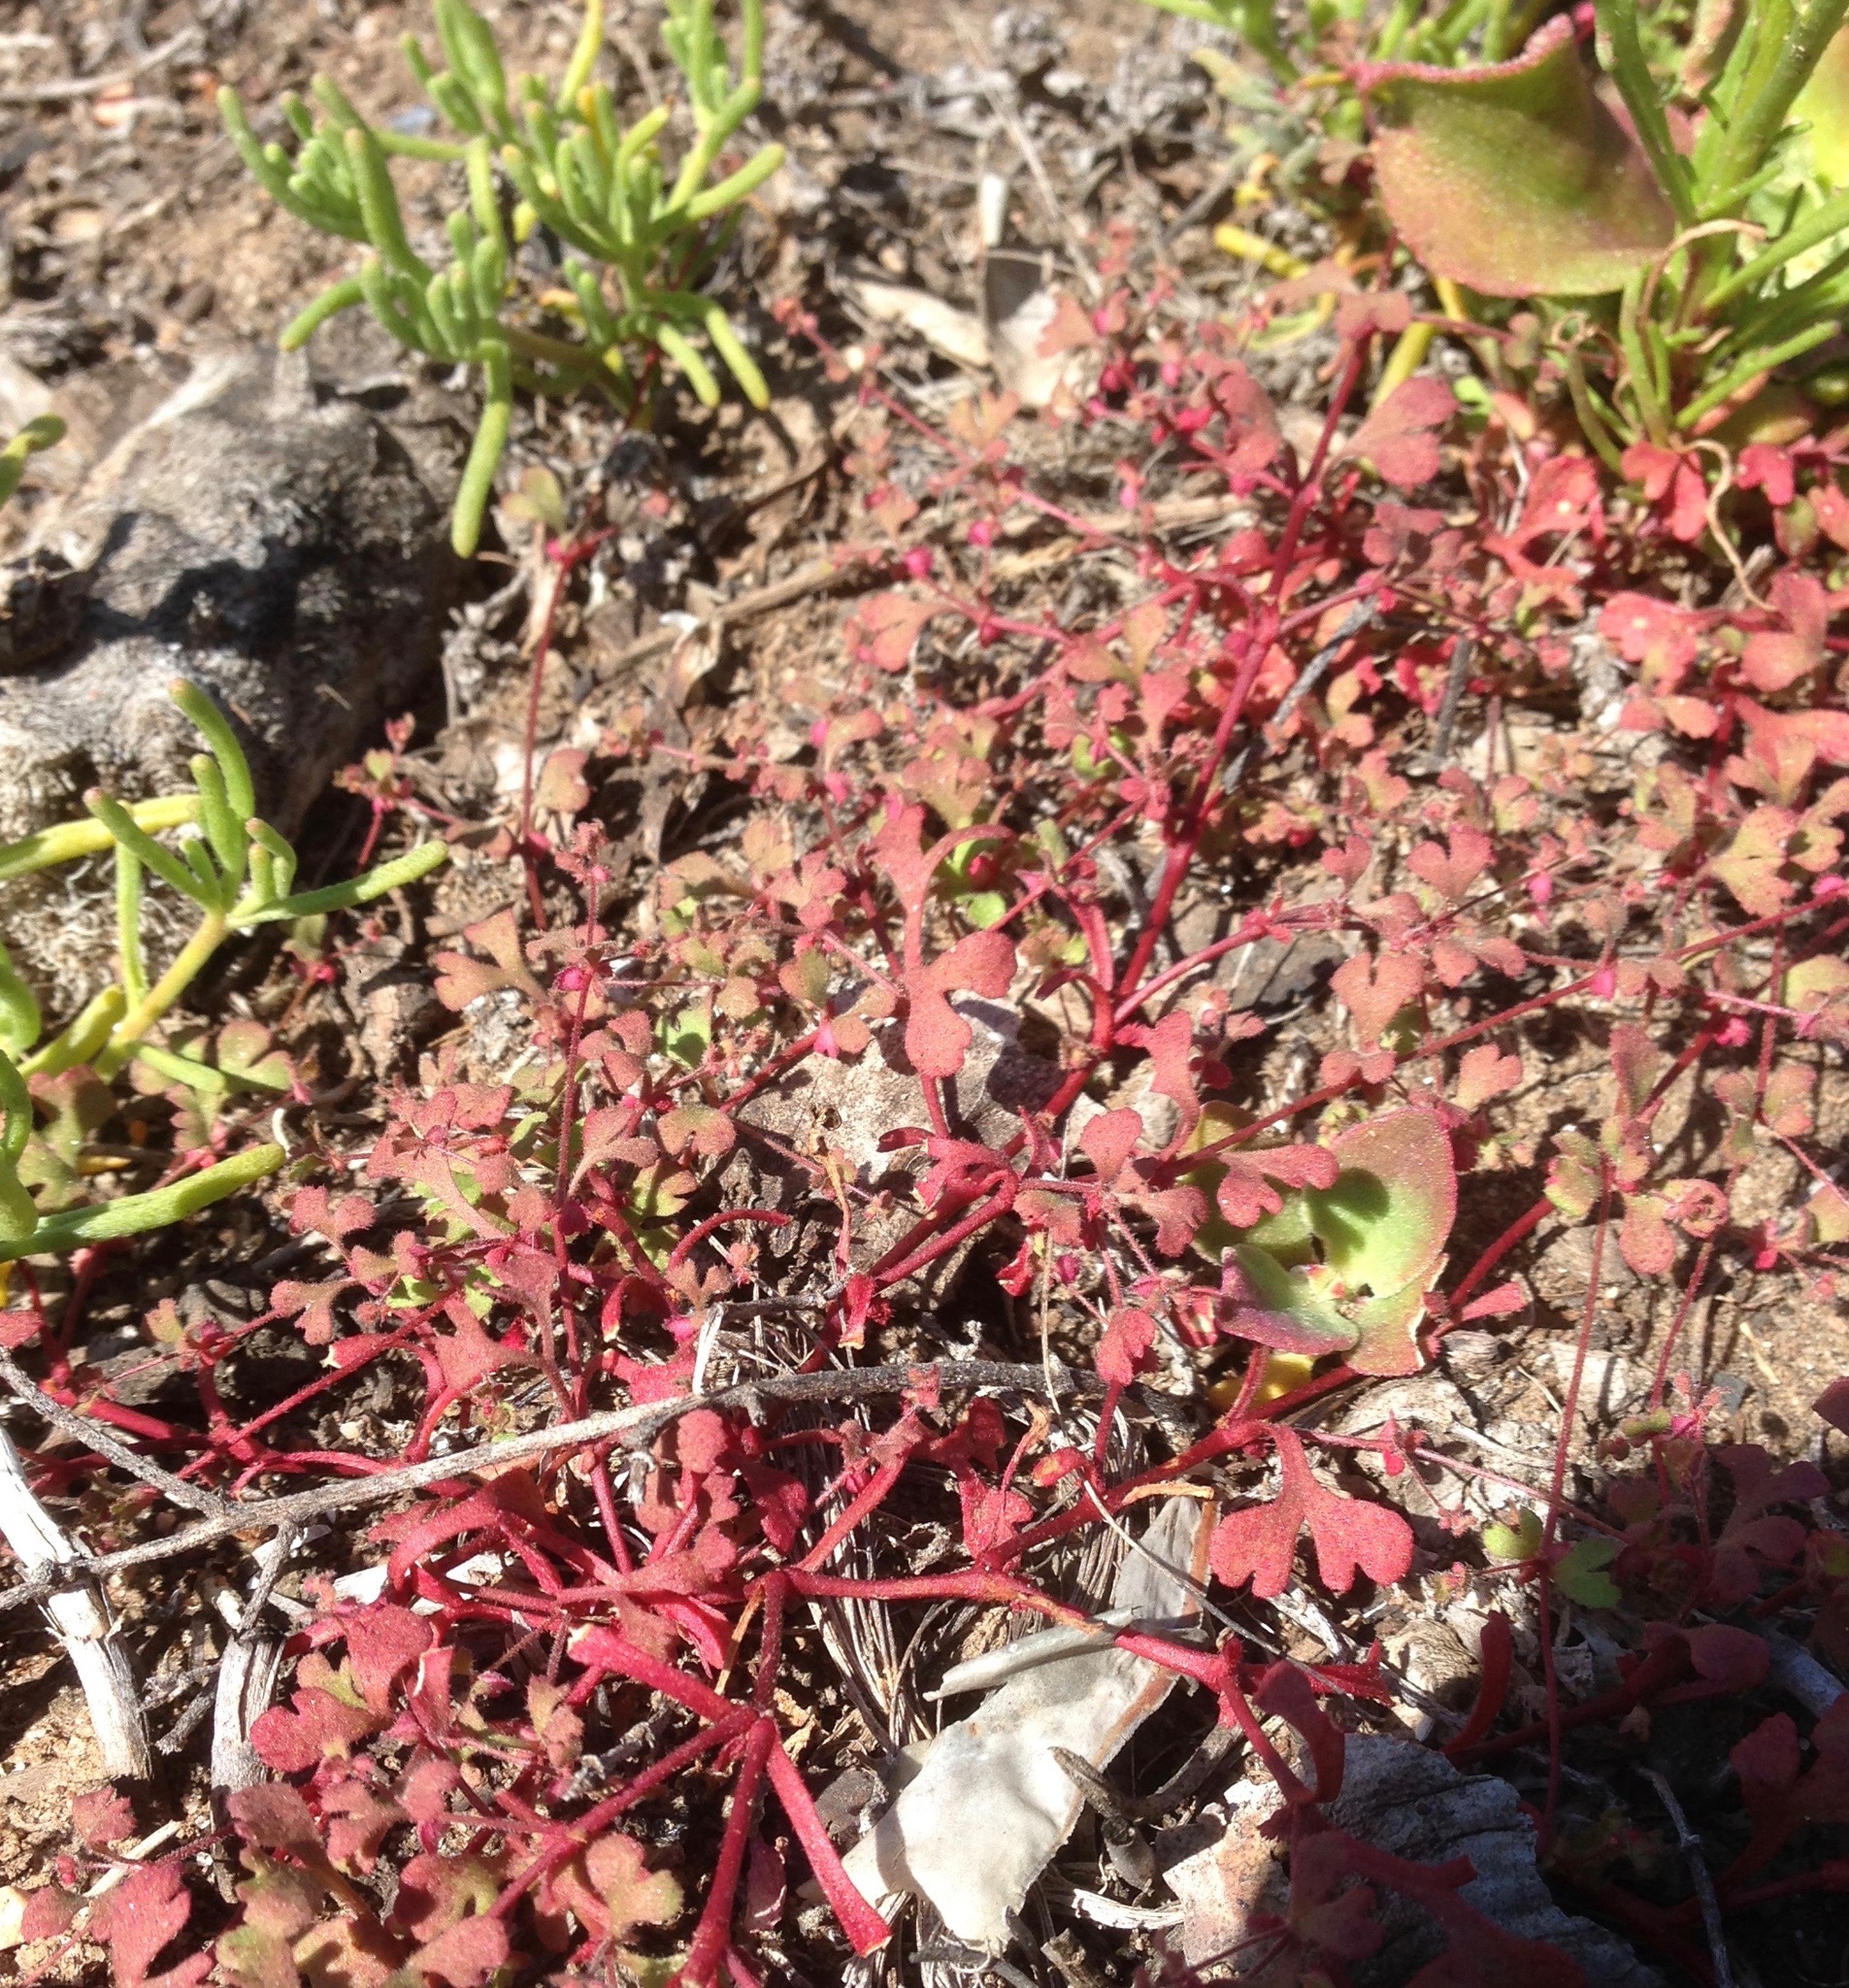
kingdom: Plantae
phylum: Tracheophyta
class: Magnoliopsida
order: Caryophyllales
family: Polygonaceae
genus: Pterostegia
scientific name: Pterostegia drymarioides
